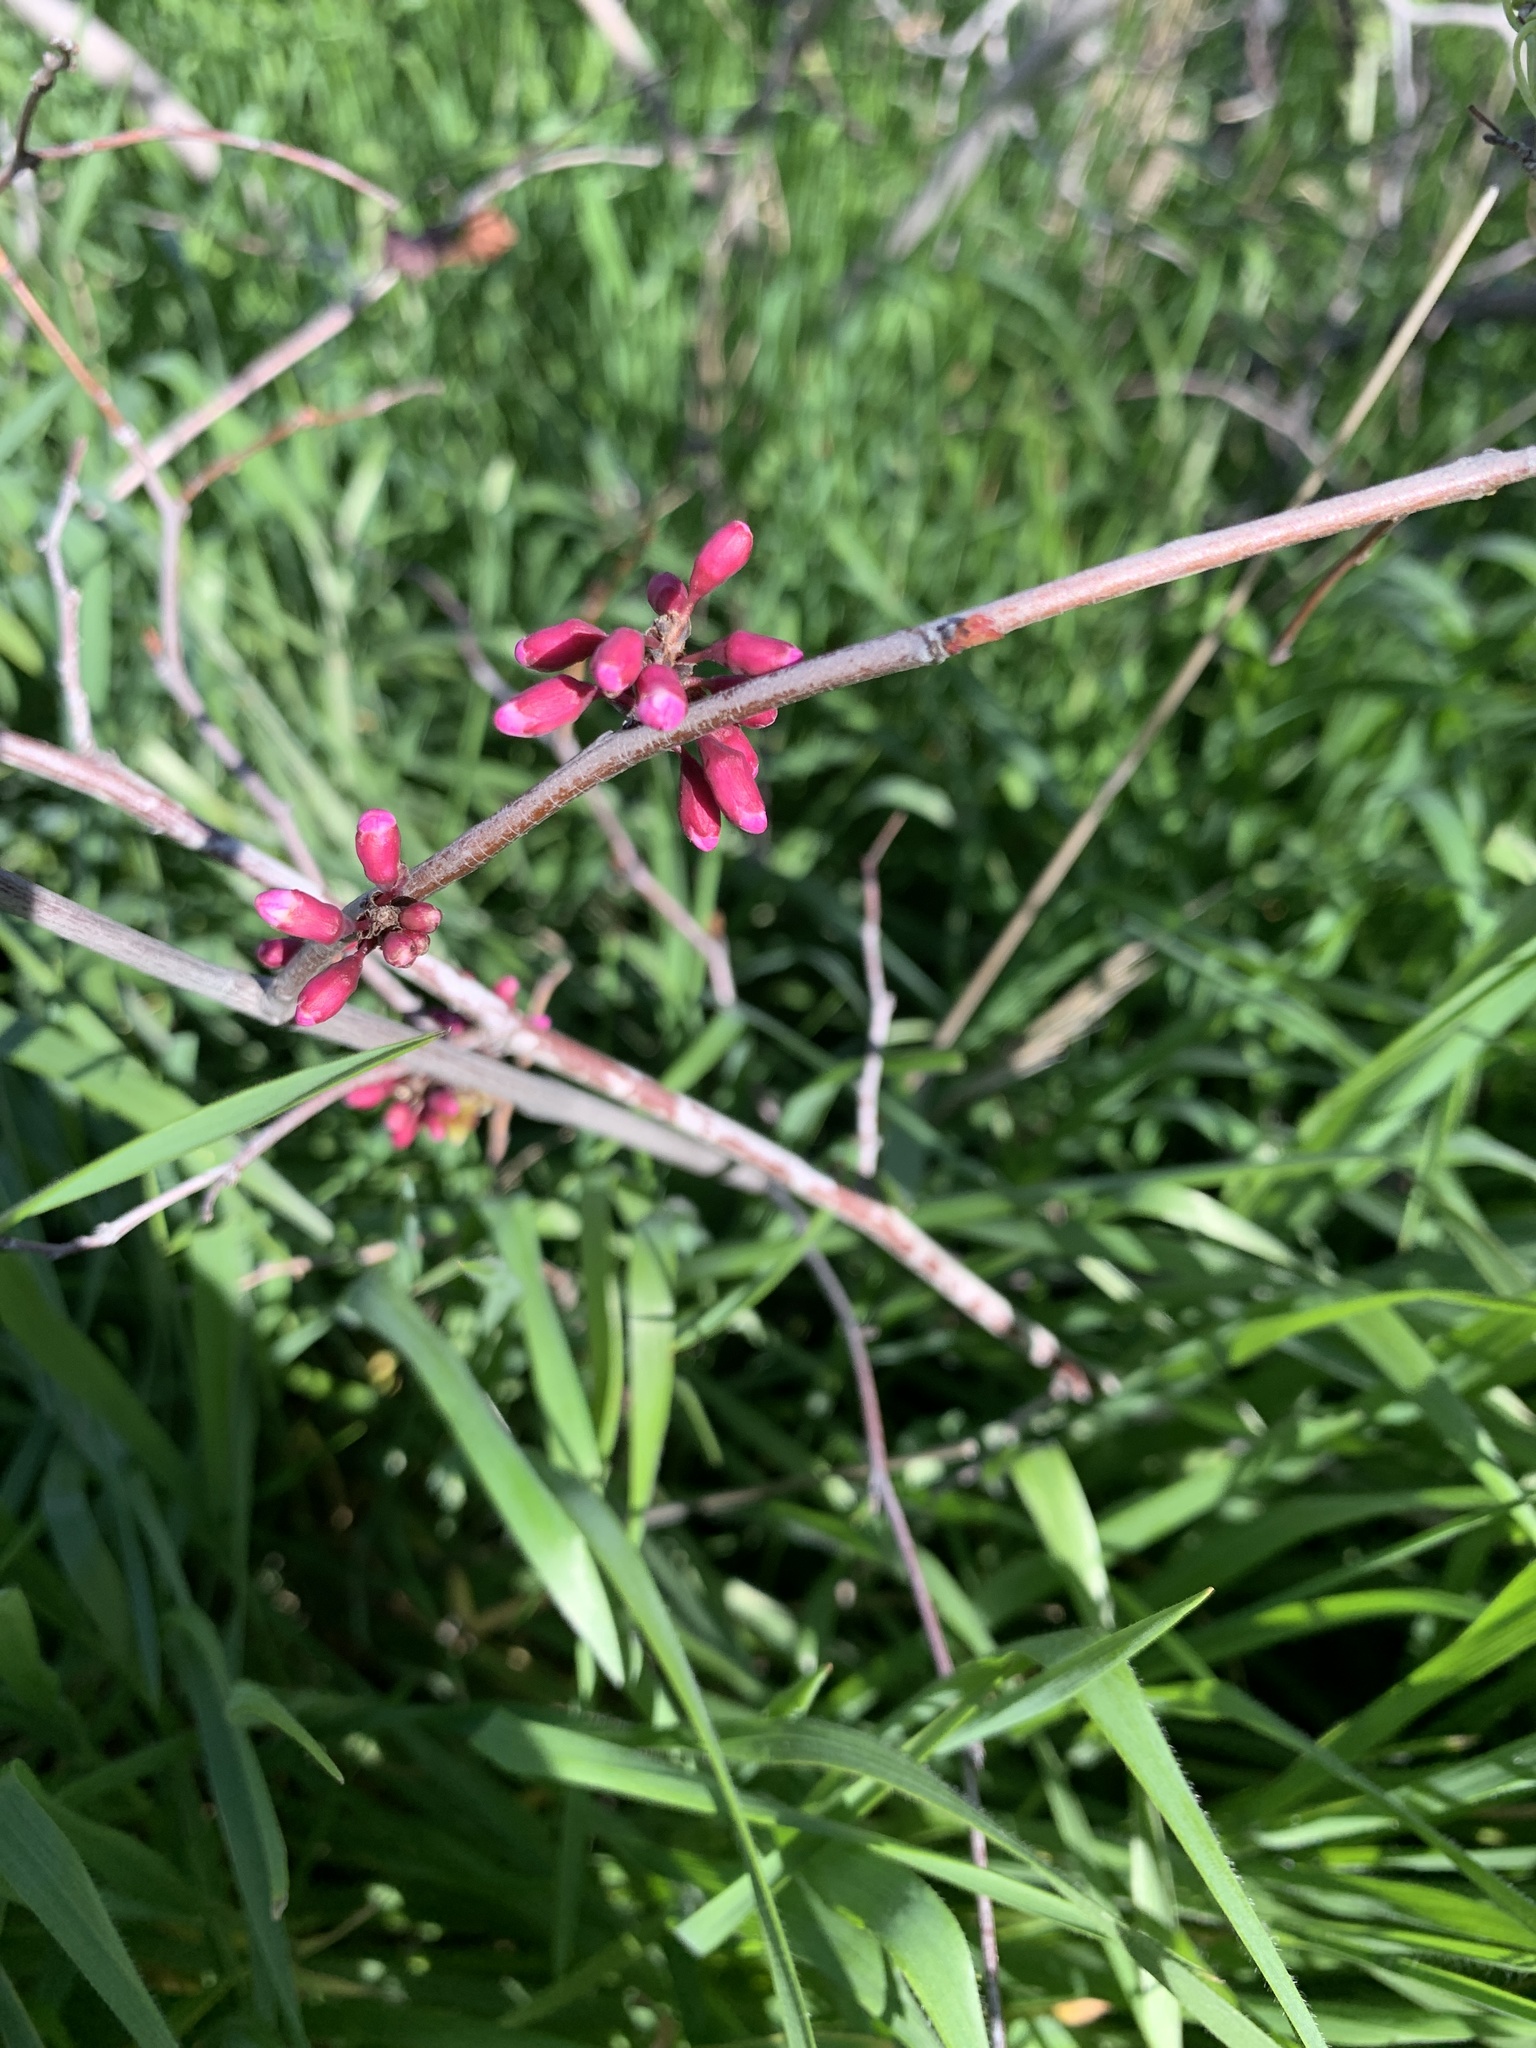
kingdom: Plantae
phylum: Tracheophyta
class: Magnoliopsida
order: Fabales
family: Fabaceae
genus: Cercis
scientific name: Cercis occidentalis
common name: California redbud
